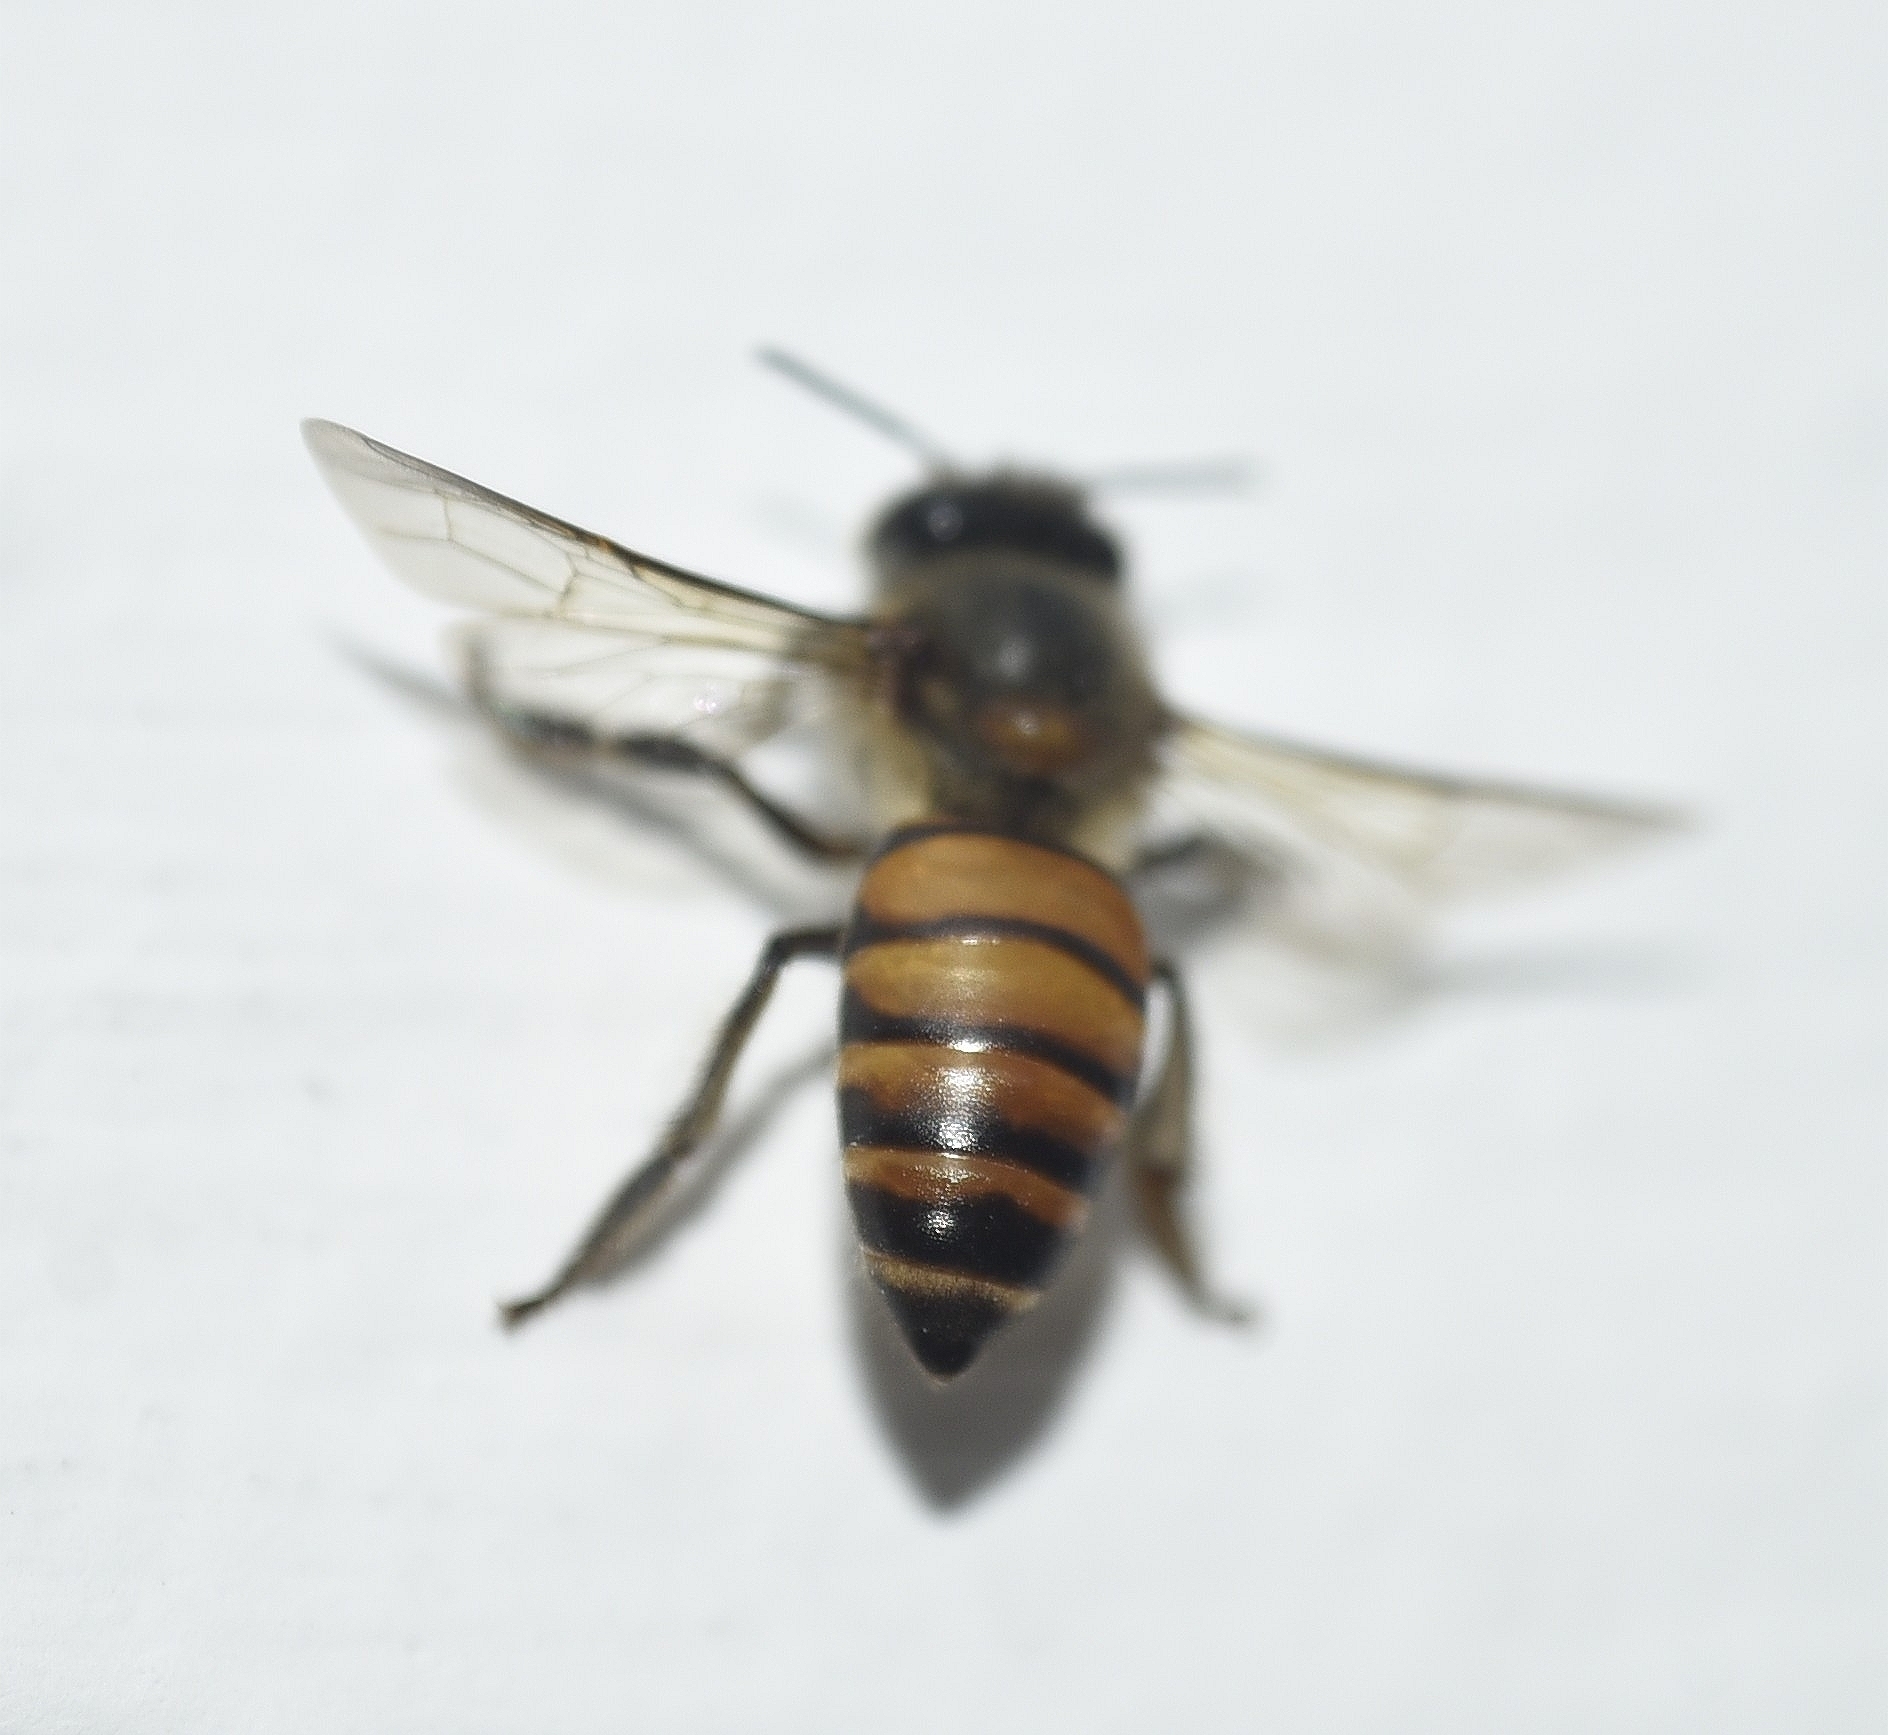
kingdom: Animalia
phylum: Arthropoda
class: Insecta
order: Hymenoptera
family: Apidae
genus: Apis
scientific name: Apis cerana
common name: Honey bee
